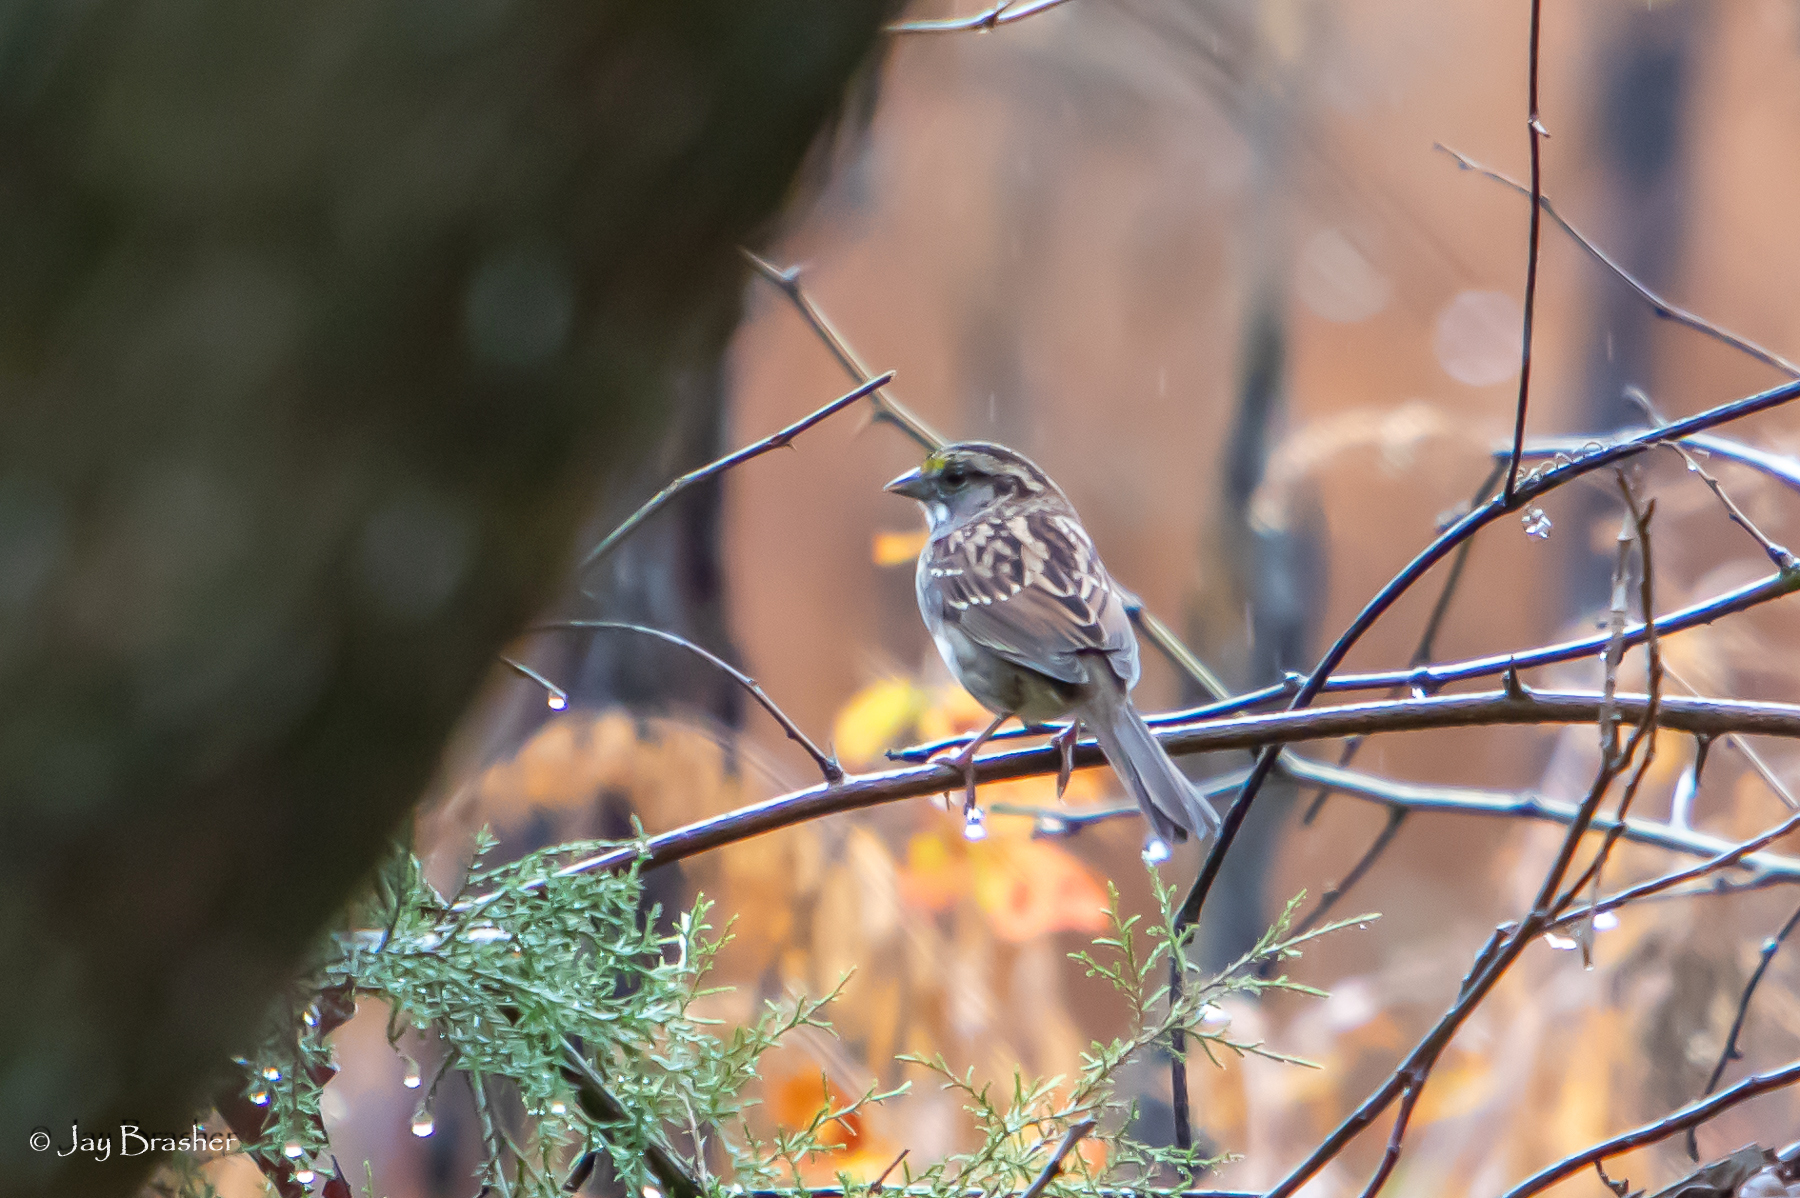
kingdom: Animalia
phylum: Chordata
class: Aves
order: Passeriformes
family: Passerellidae
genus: Zonotrichia
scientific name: Zonotrichia albicollis
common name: White-throated sparrow
